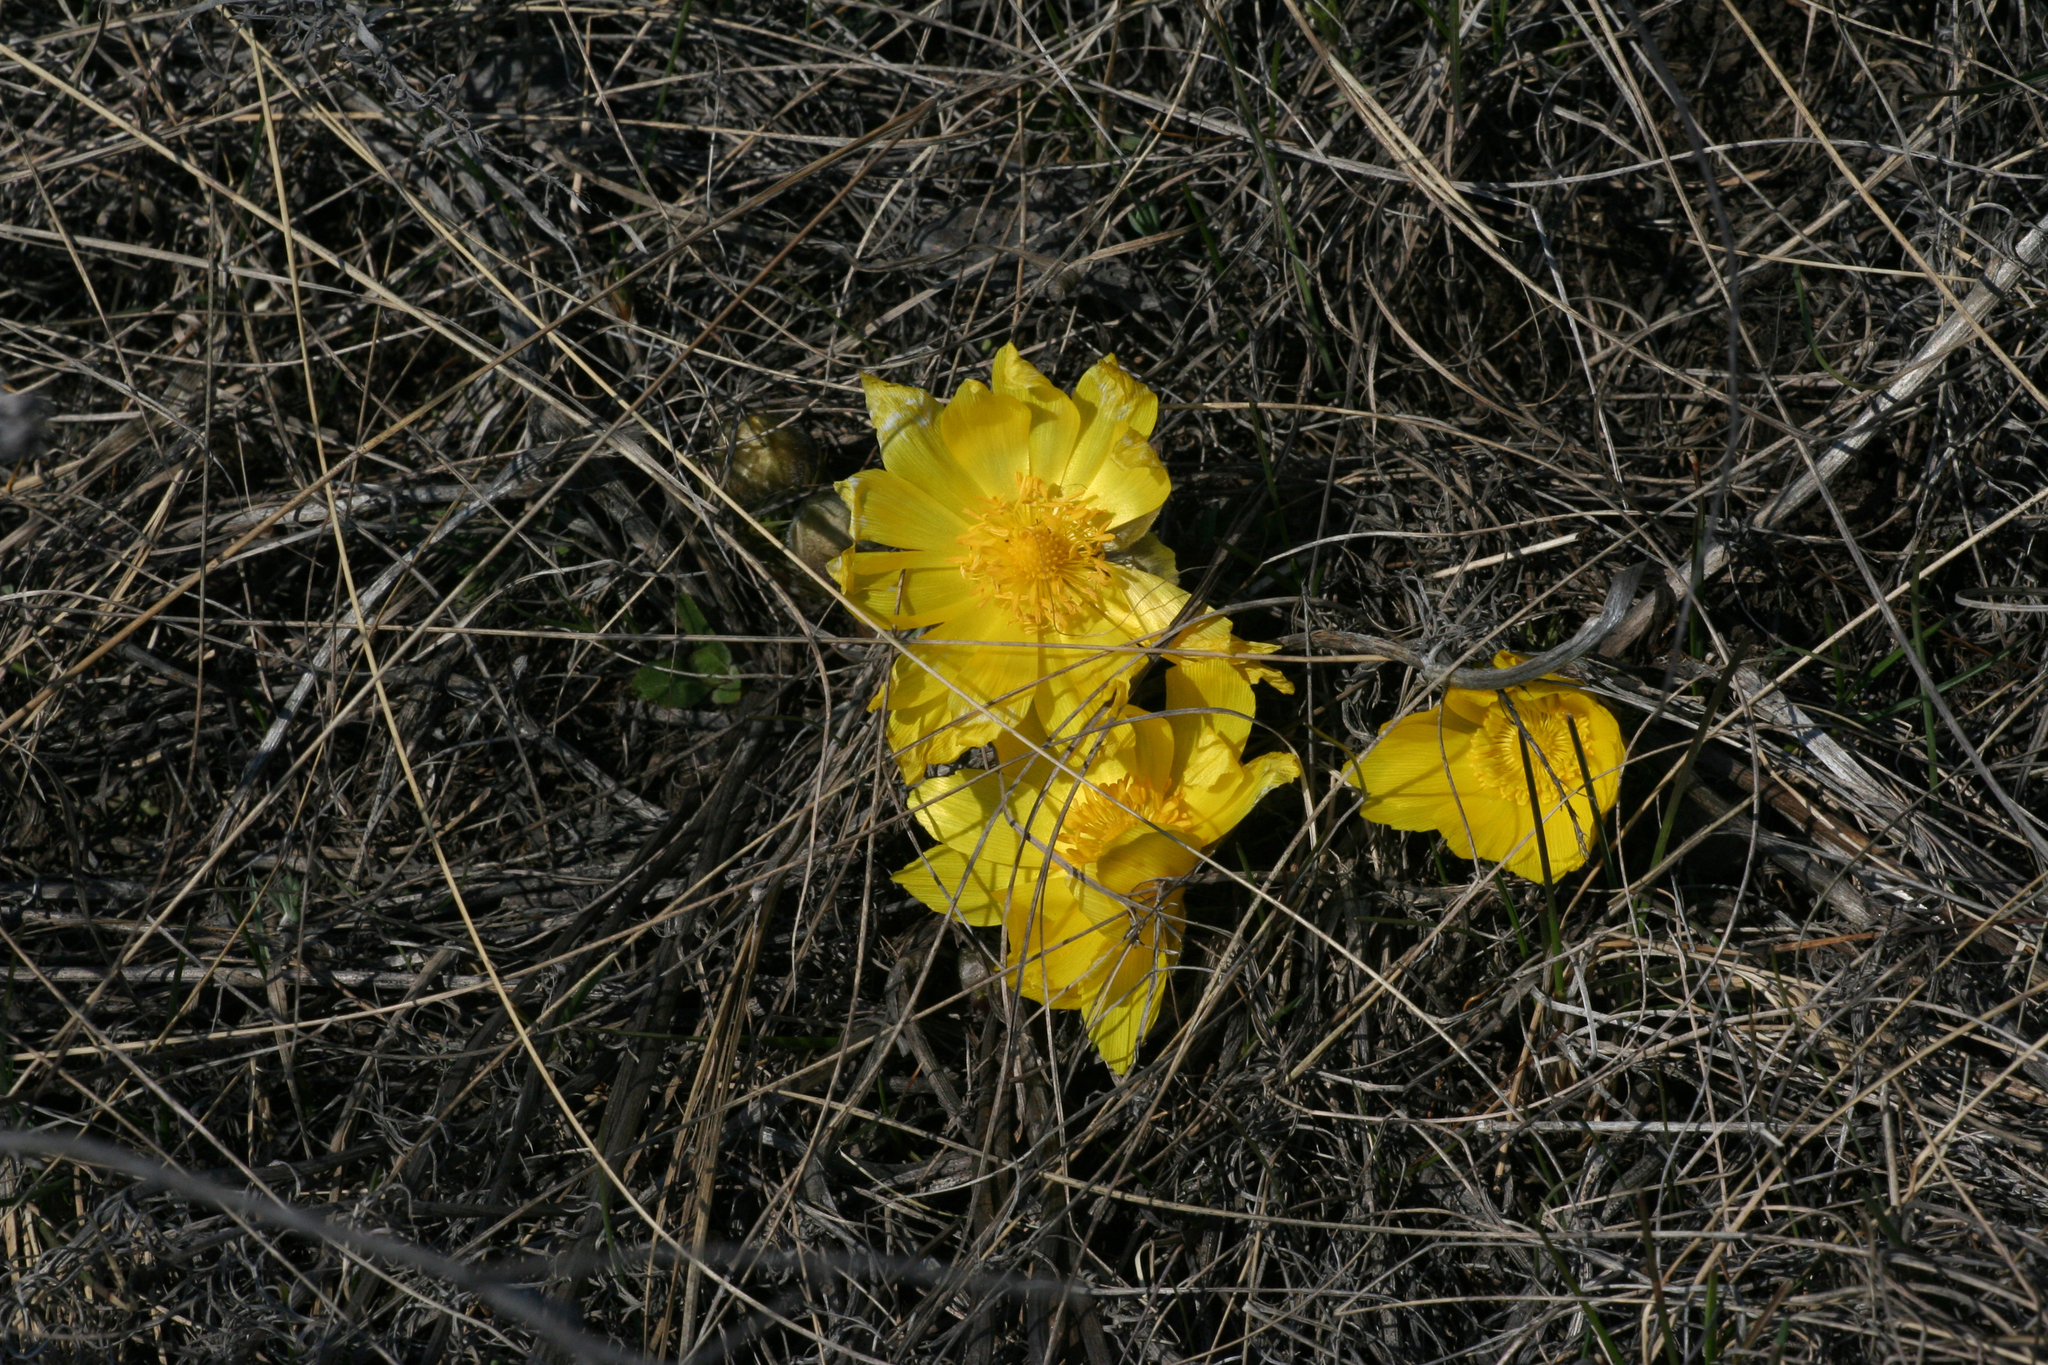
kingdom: Plantae
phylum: Tracheophyta
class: Magnoliopsida
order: Ranunculales
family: Ranunculaceae
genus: Adonis
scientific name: Adonis vernalis
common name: Yellow pheasants-eye
